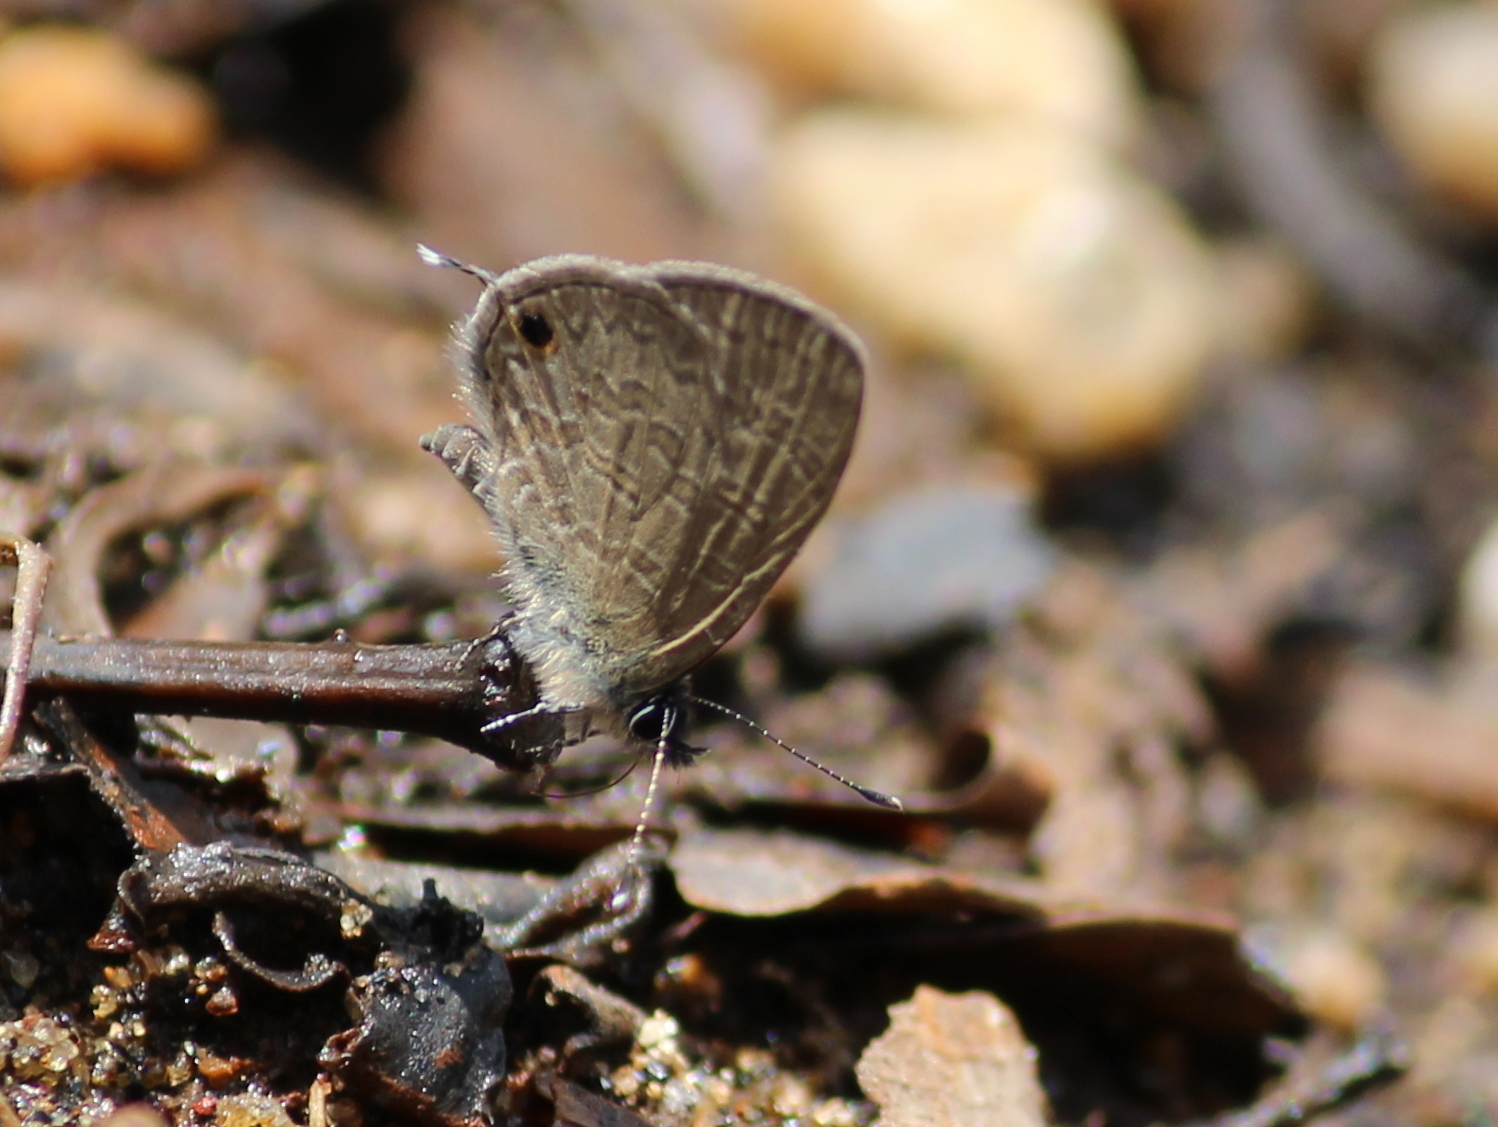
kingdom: Animalia
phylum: Arthropoda
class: Insecta
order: Lepidoptera
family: Lycaenidae
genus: Prosotas
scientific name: Prosotas nora
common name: Common line blue
